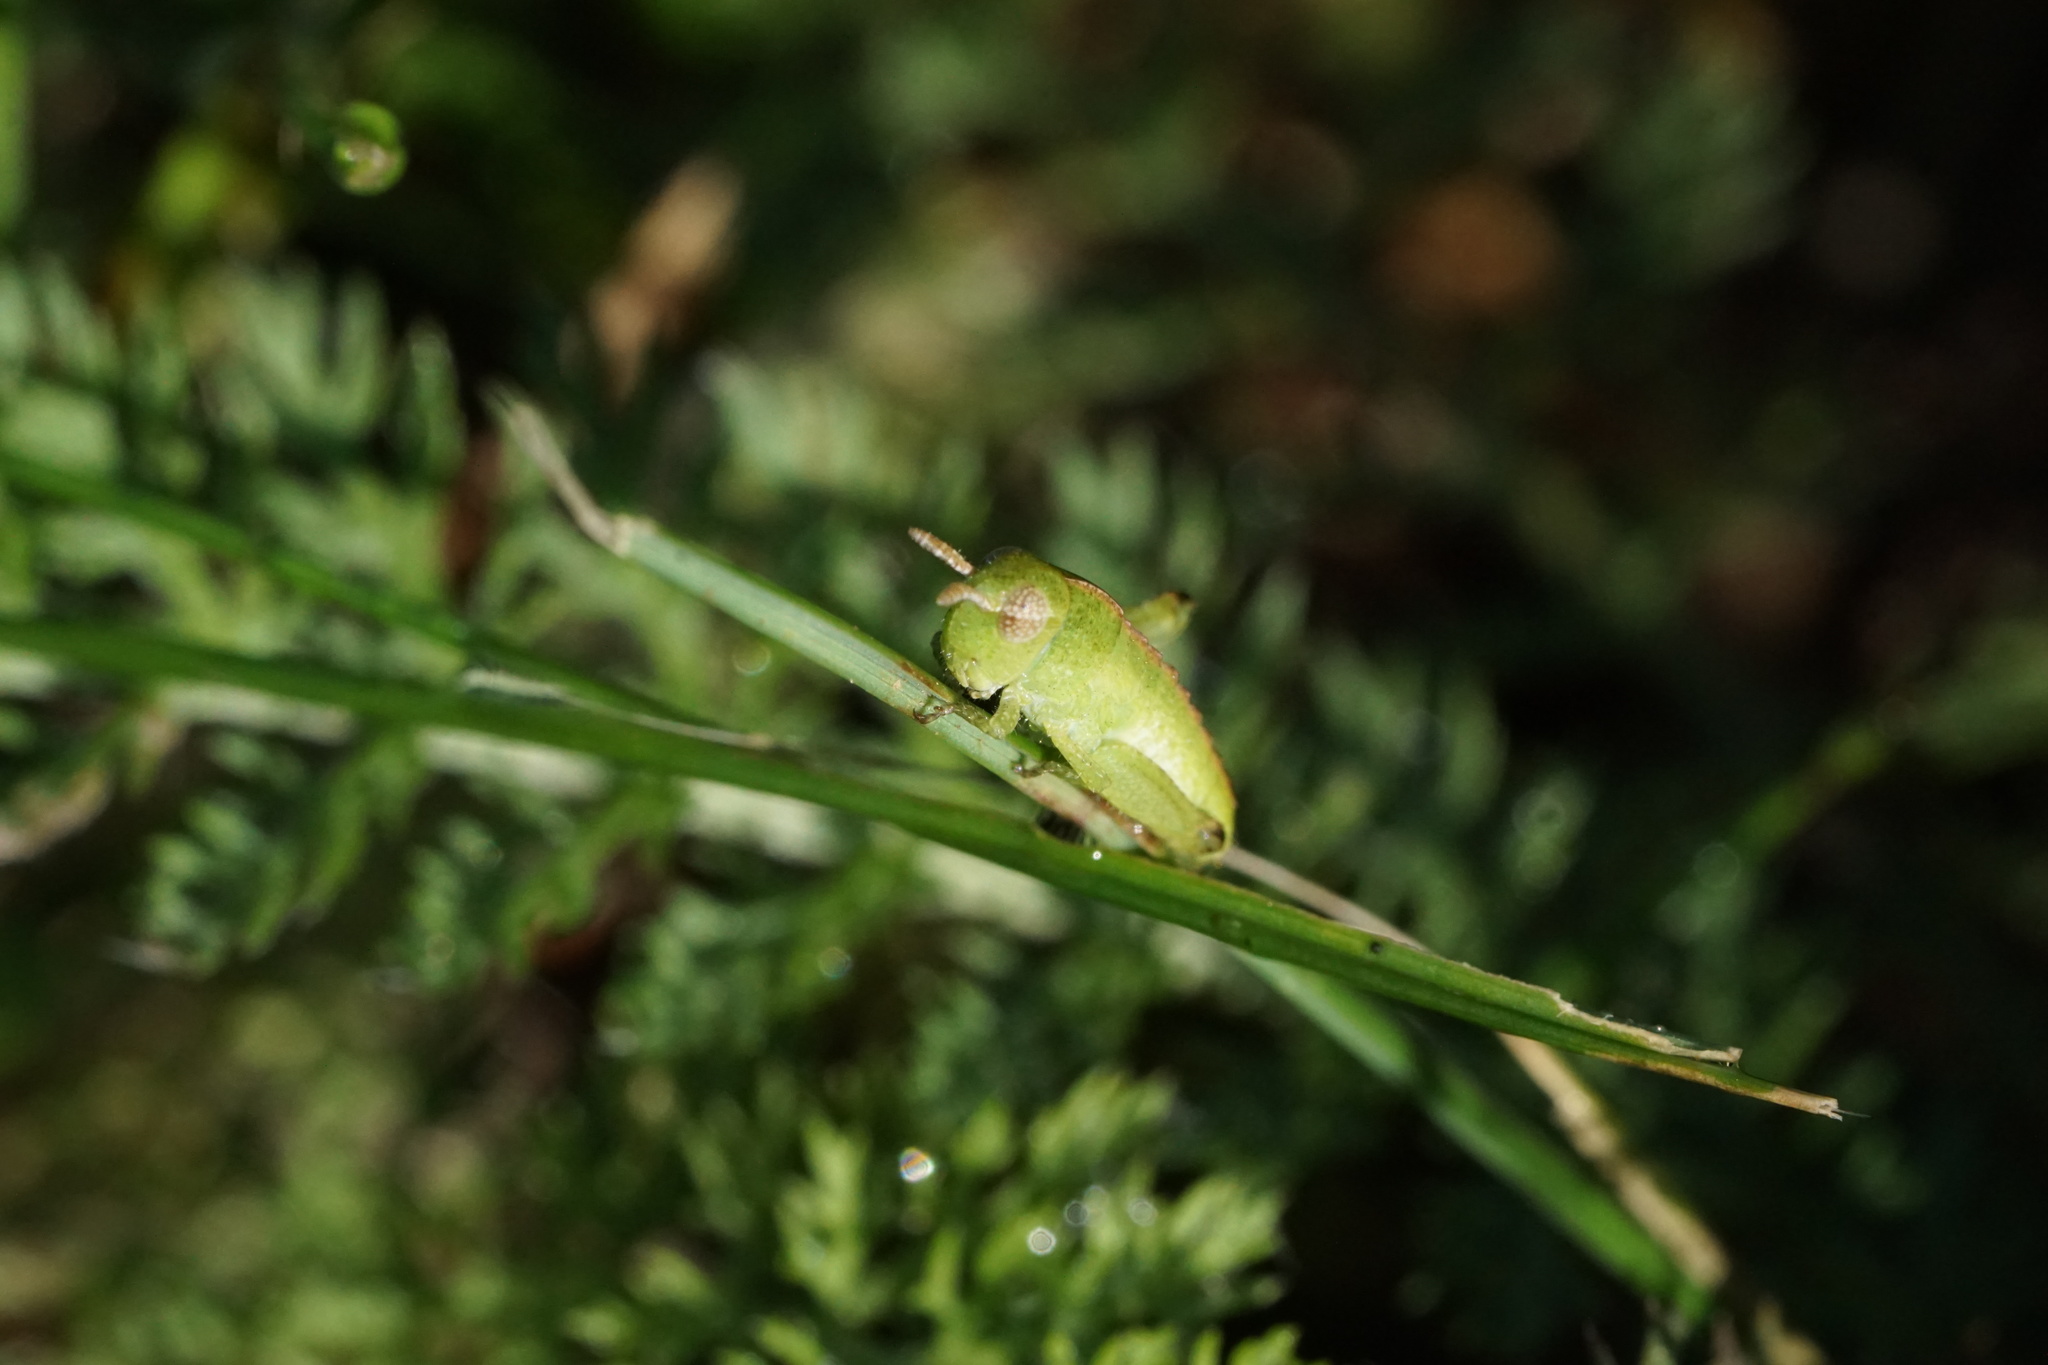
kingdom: Animalia
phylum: Arthropoda
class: Insecta
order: Orthoptera
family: Acrididae
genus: Chortophaga
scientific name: Chortophaga viridifasciata
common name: Green-striped grasshopper
